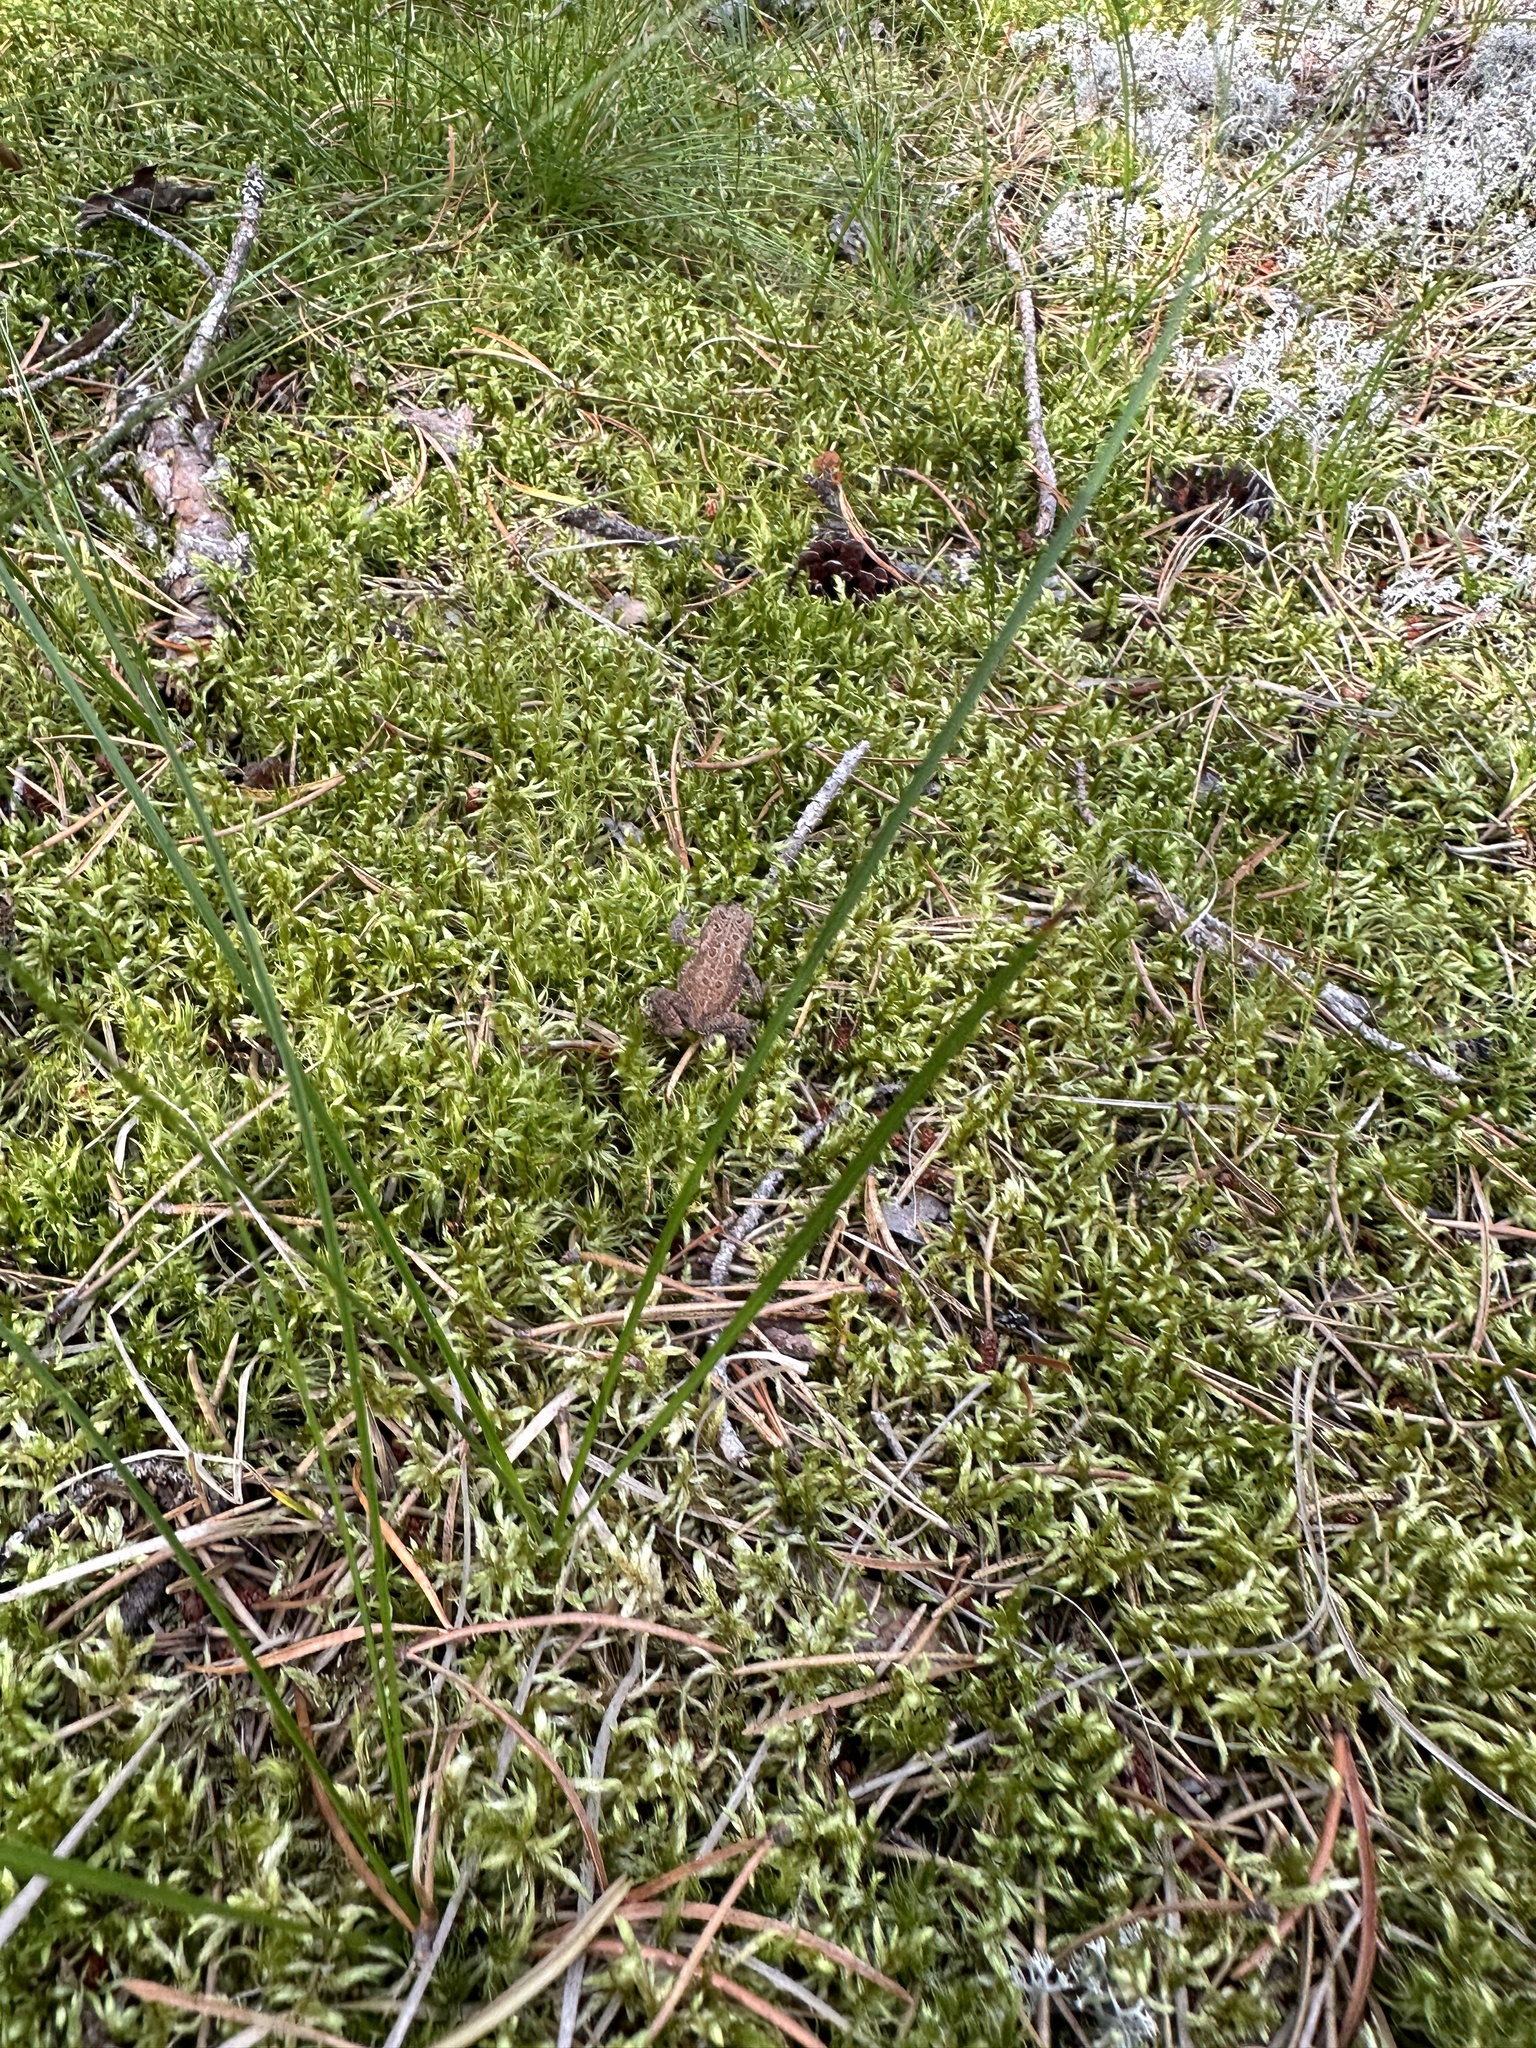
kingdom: Animalia
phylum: Chordata
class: Amphibia
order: Anura
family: Bufonidae
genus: Anaxyrus
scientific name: Anaxyrus americanus
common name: American toad
